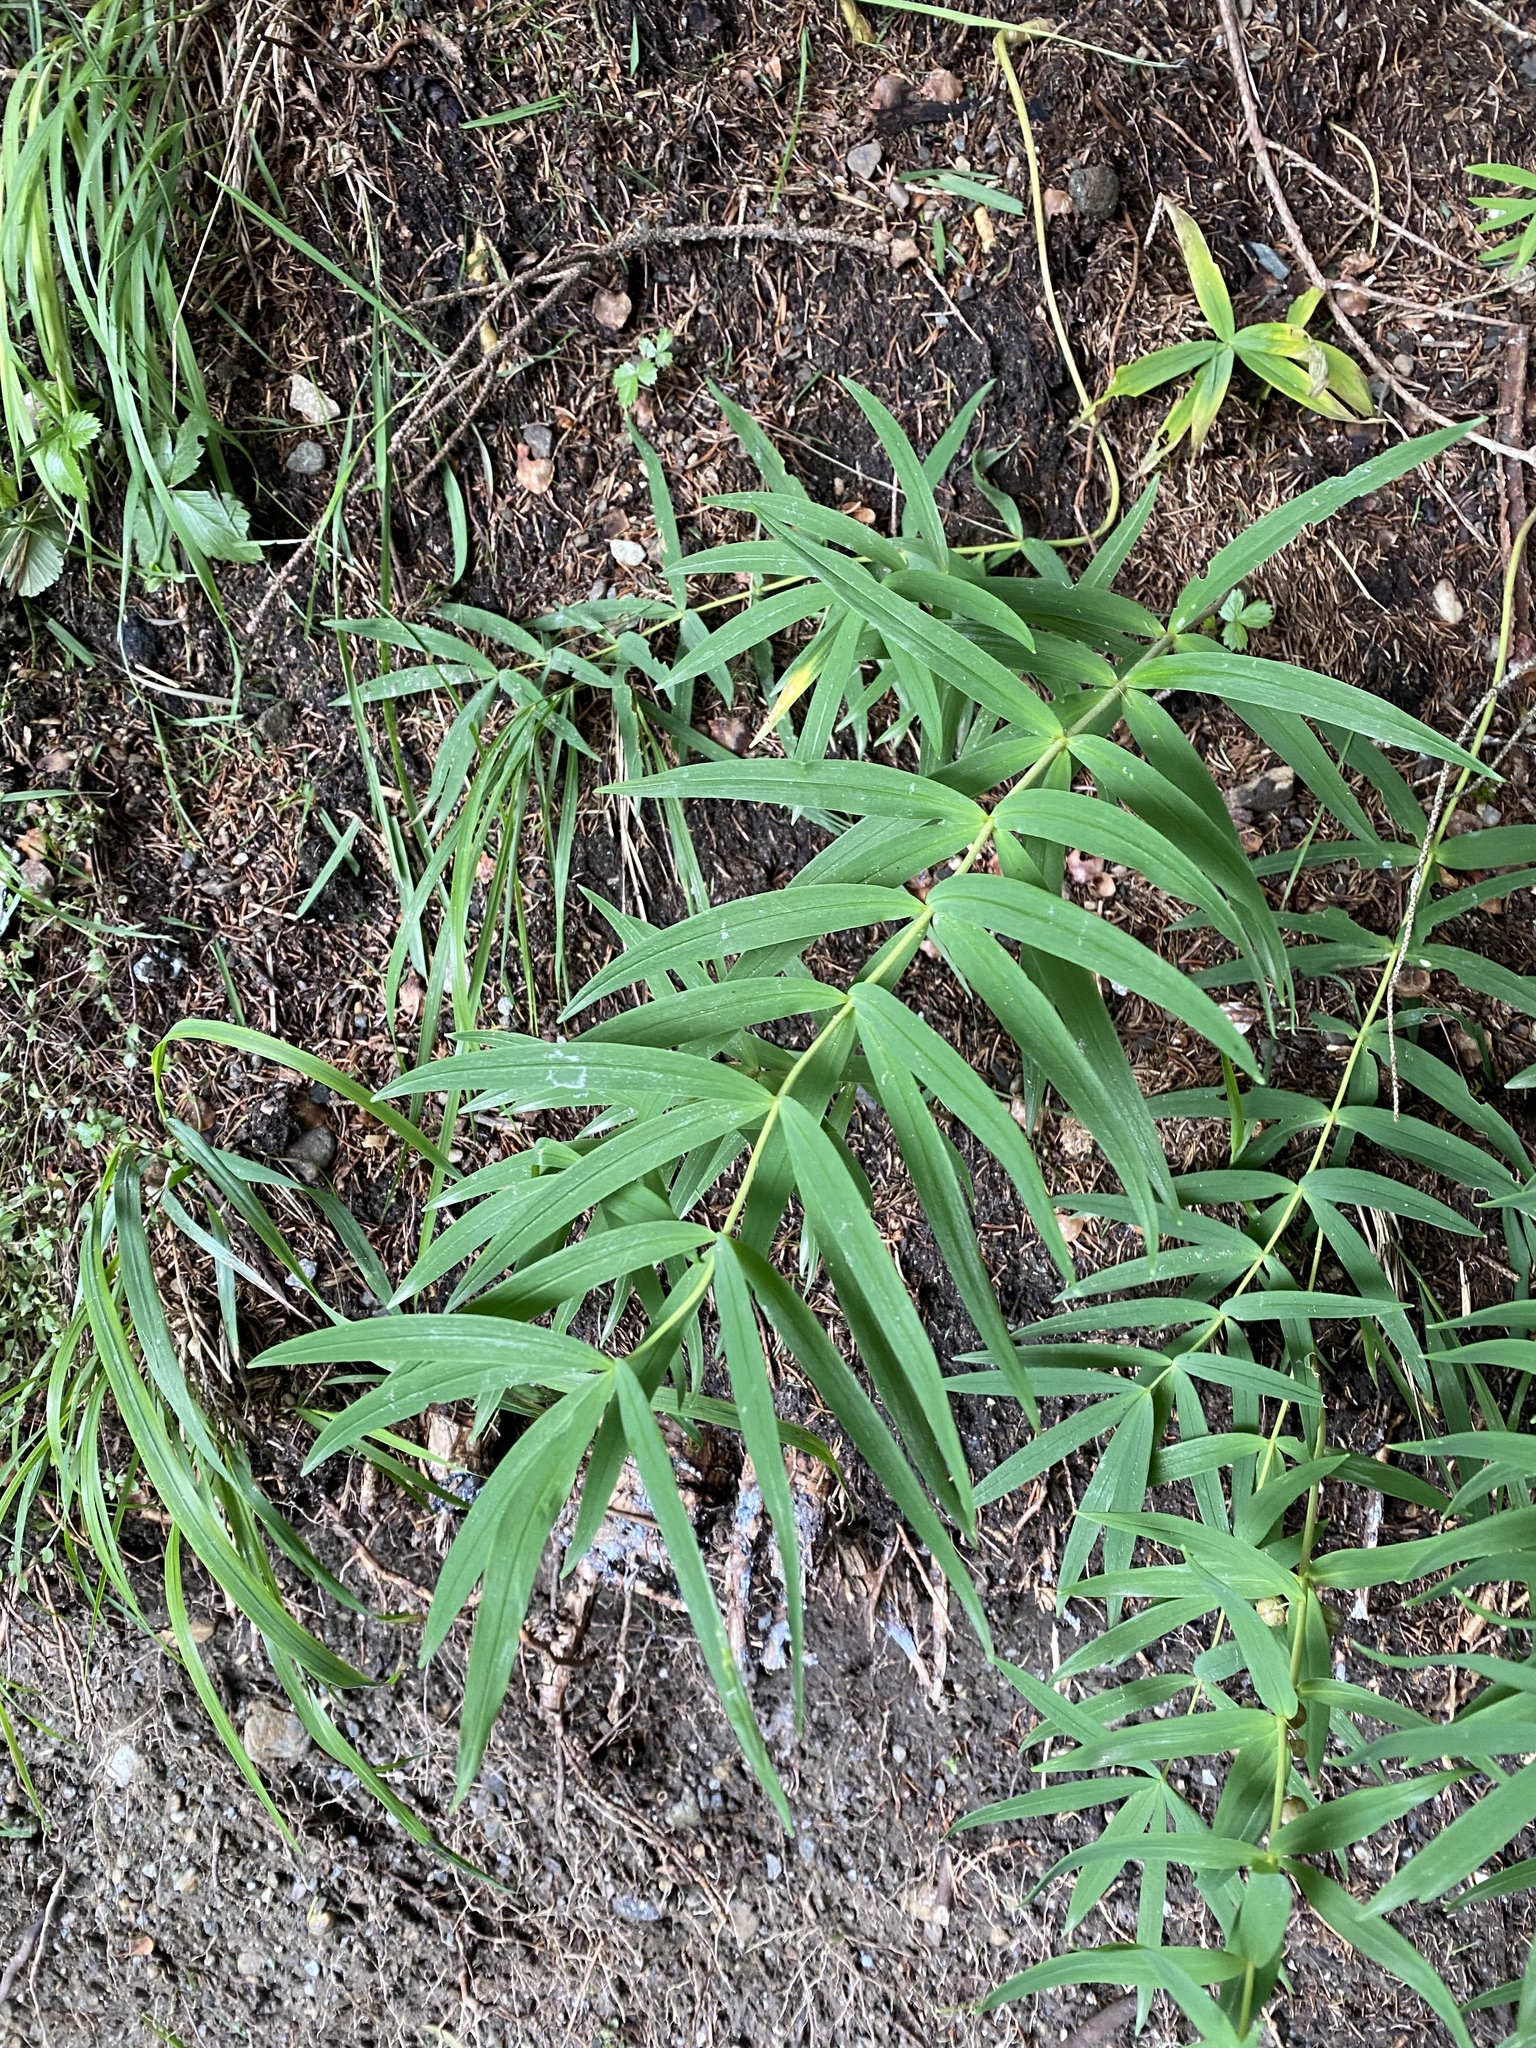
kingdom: Plantae
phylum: Tracheophyta
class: Liliopsida
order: Asparagales
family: Asparagaceae
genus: Polygonatum
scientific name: Polygonatum verticillatum
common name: Whorled solomon's-seal
